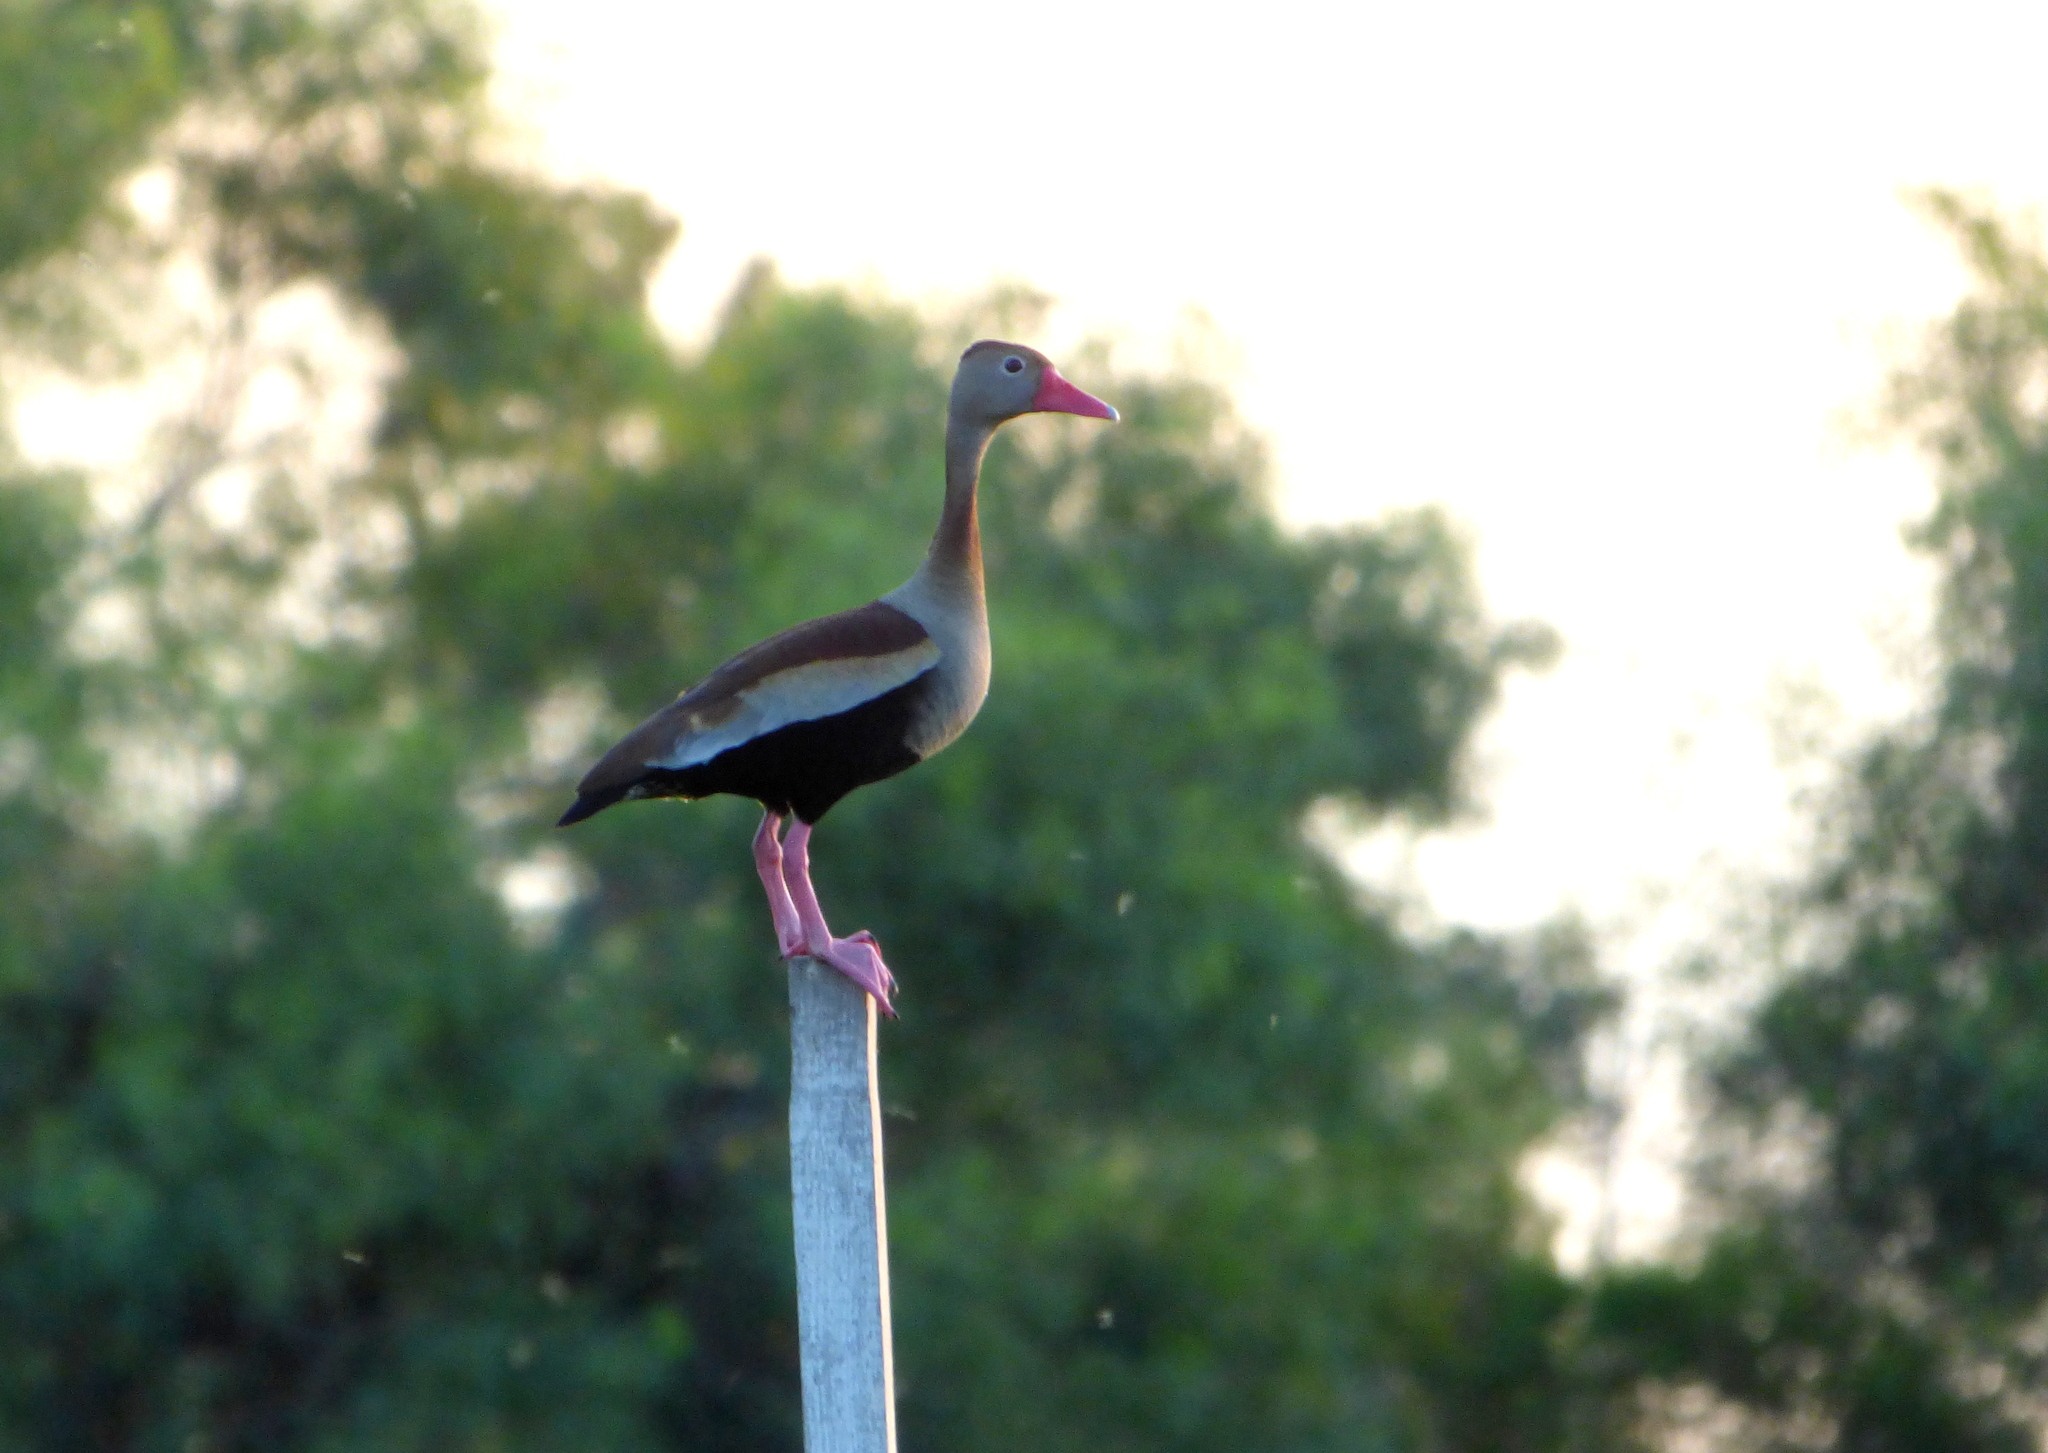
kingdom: Animalia
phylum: Chordata
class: Aves
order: Anseriformes
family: Anatidae
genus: Dendrocygna
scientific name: Dendrocygna autumnalis
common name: Black-bellied whistling duck
